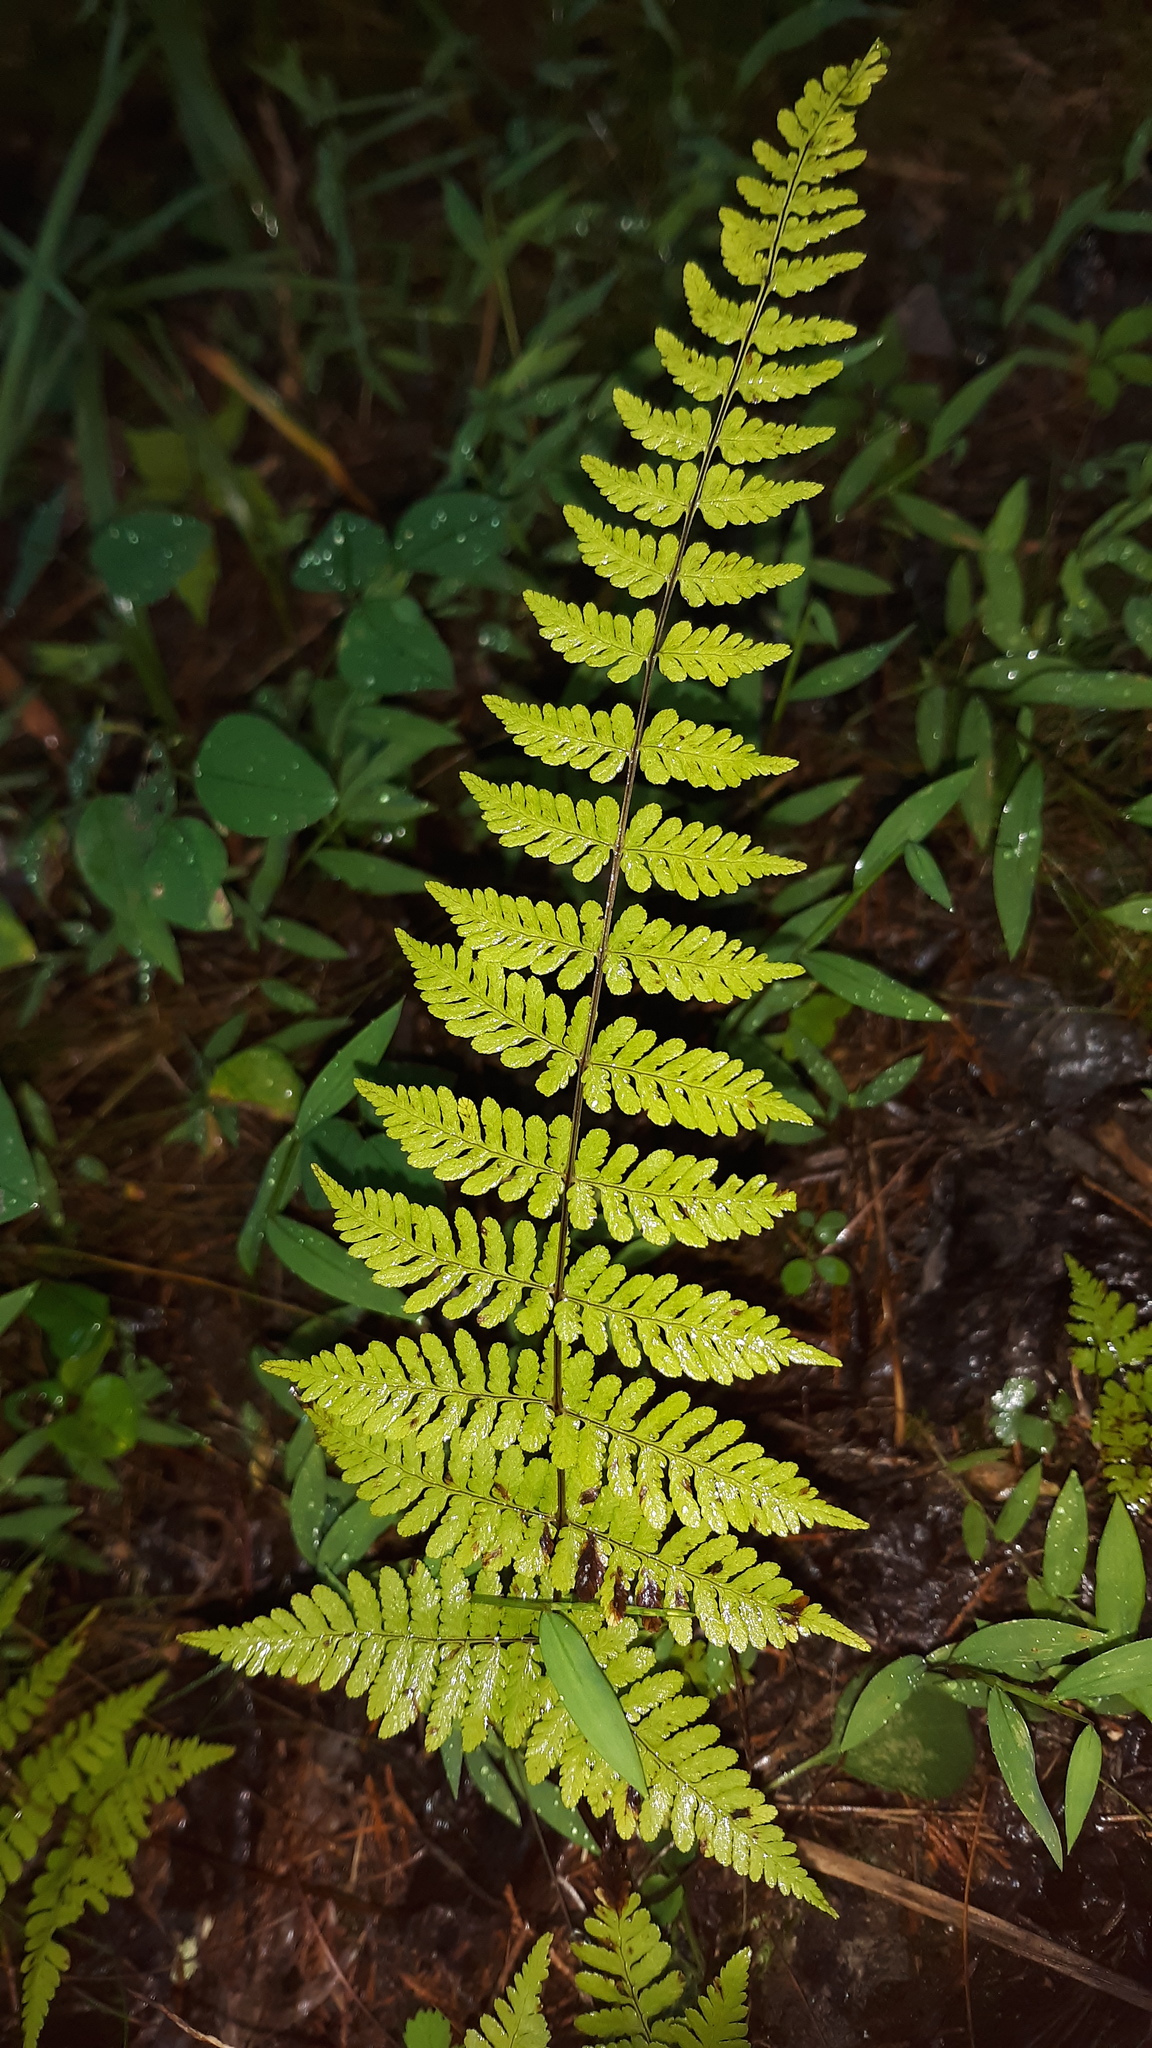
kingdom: Plantae
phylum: Tracheophyta
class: Polypodiopsida
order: Polypodiales
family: Cystopteridaceae
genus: Cystopteris
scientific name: Cystopteris bulbifera
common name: Bulblet bladder fern
